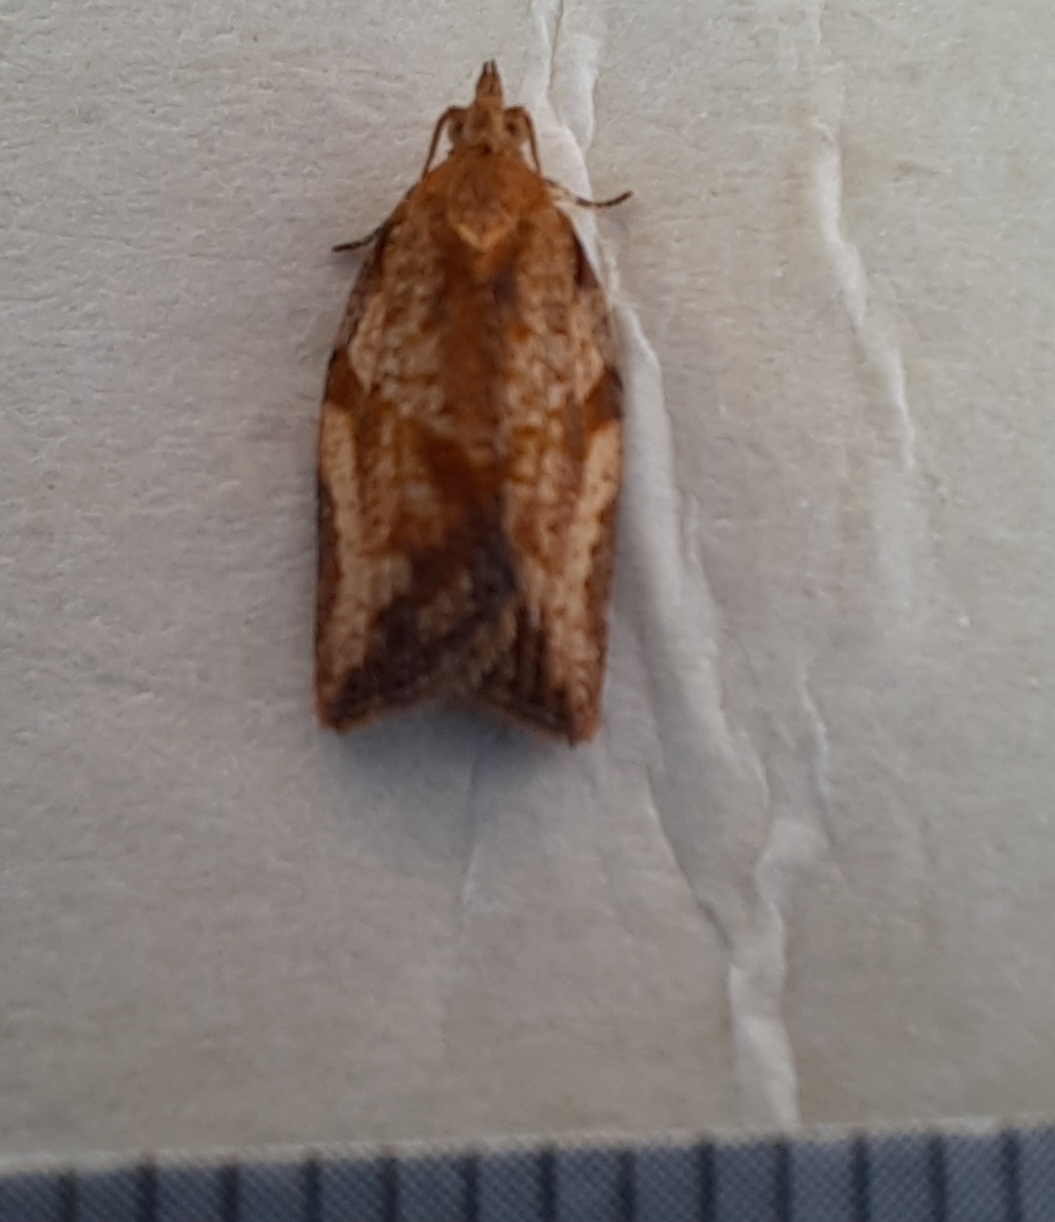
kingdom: Animalia
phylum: Arthropoda
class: Insecta
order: Lepidoptera
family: Tortricidae
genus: Epiphyas
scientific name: Epiphyas postvittana
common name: Light brown apple moth
